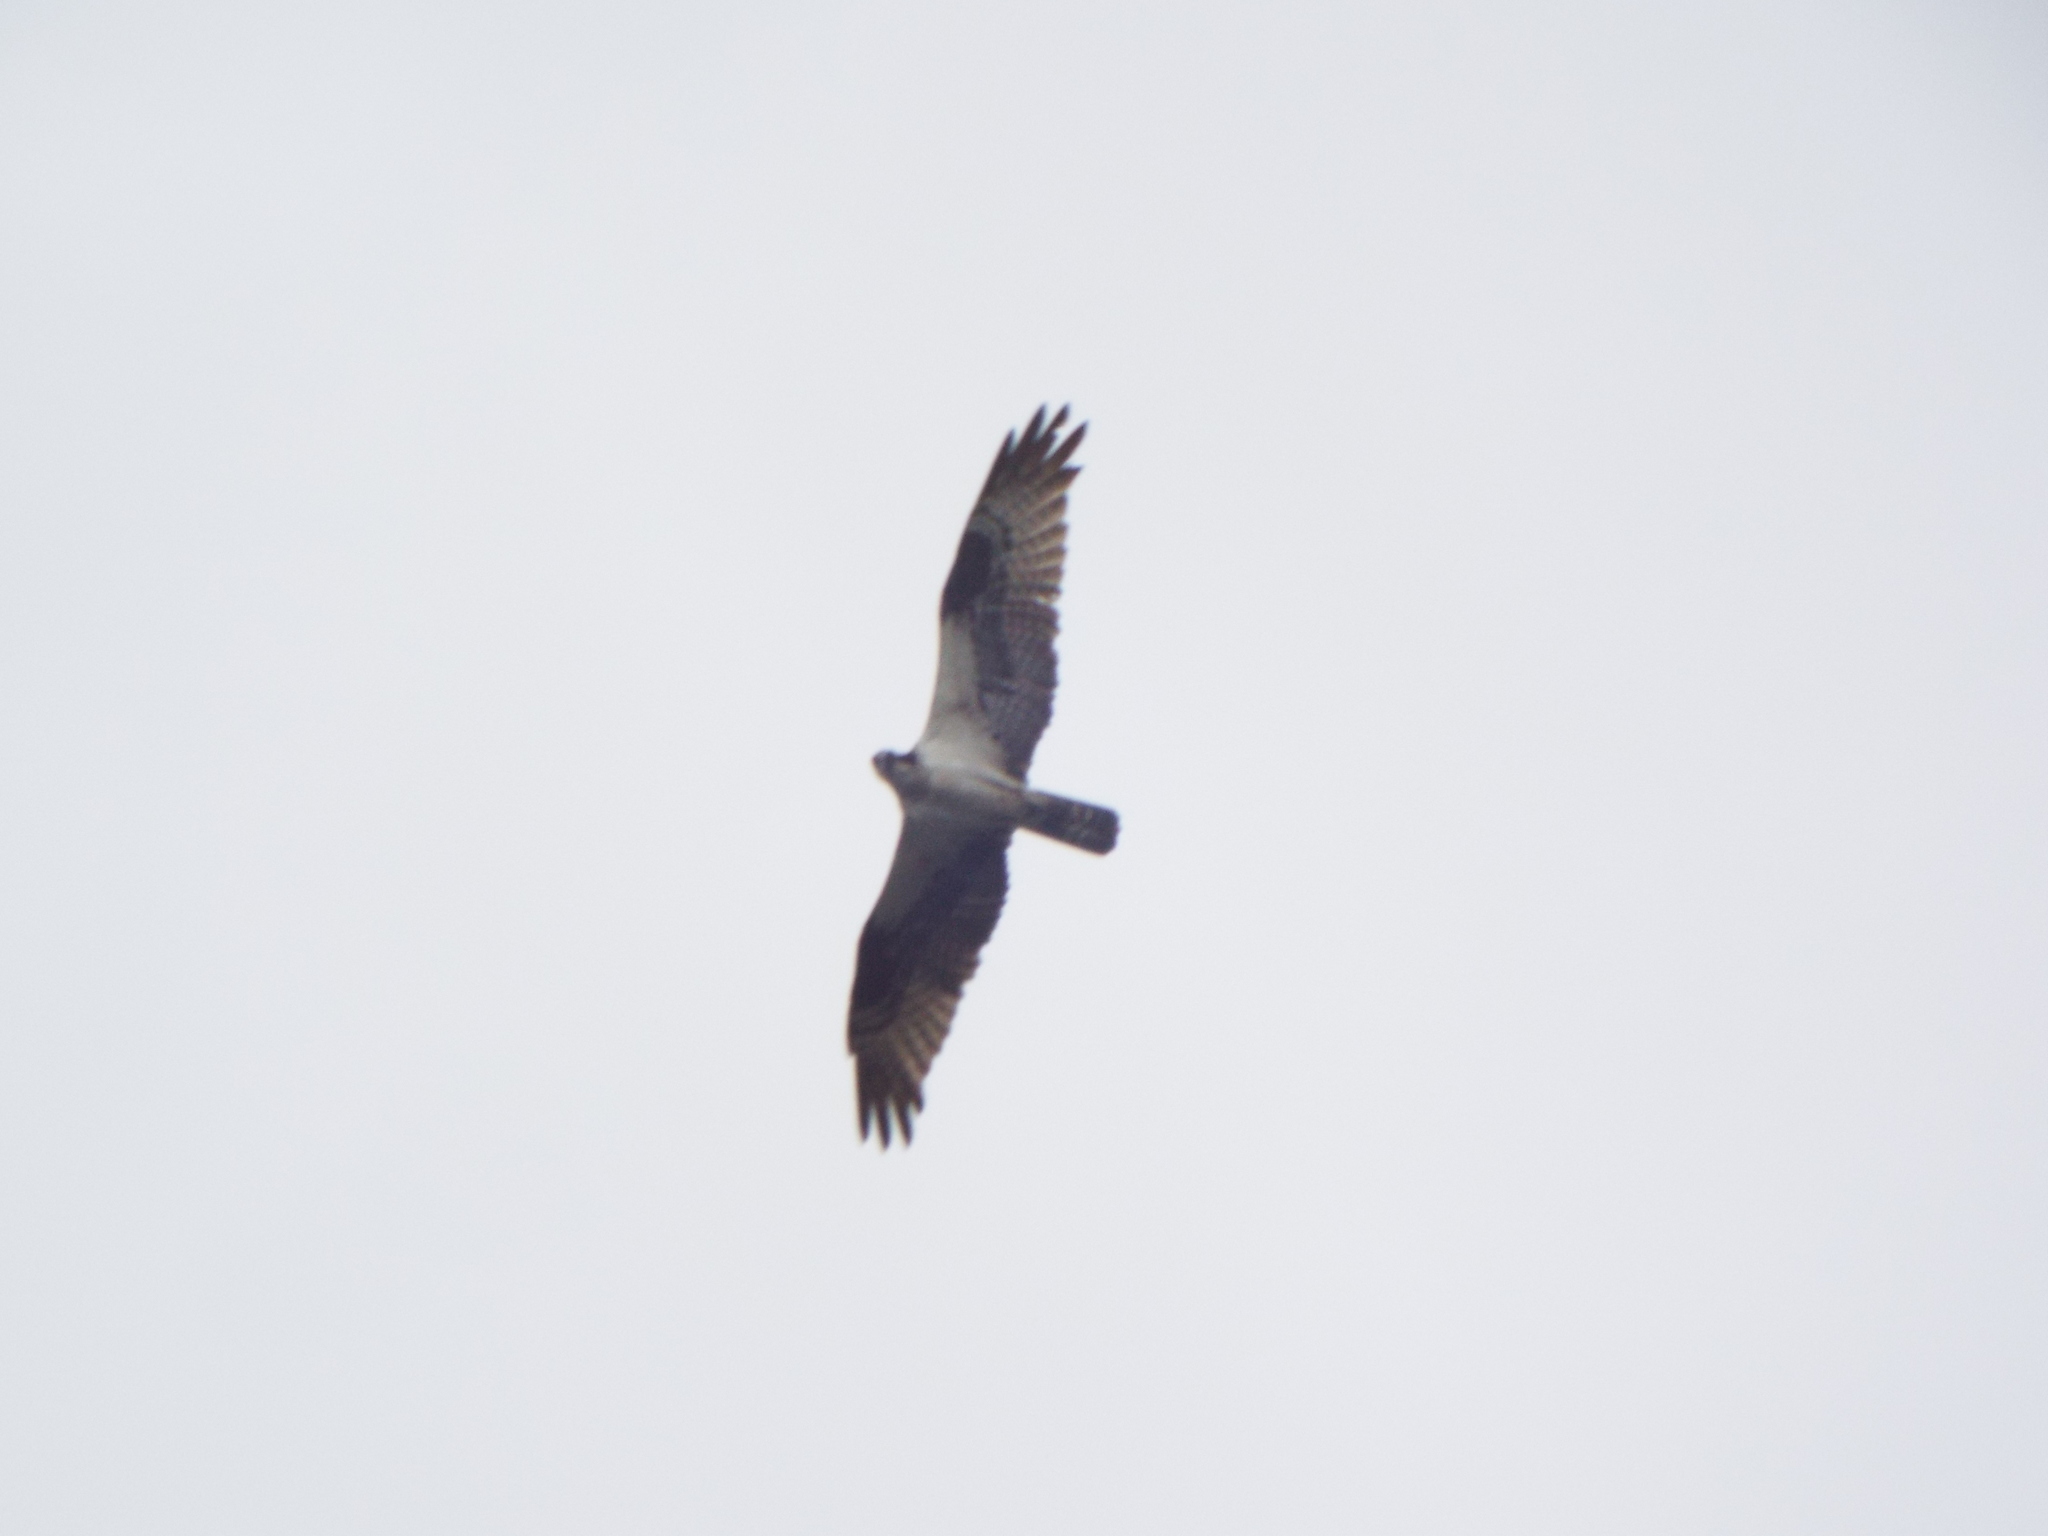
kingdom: Animalia
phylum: Chordata
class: Aves
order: Accipitriformes
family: Pandionidae
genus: Pandion
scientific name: Pandion haliaetus
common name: Osprey
